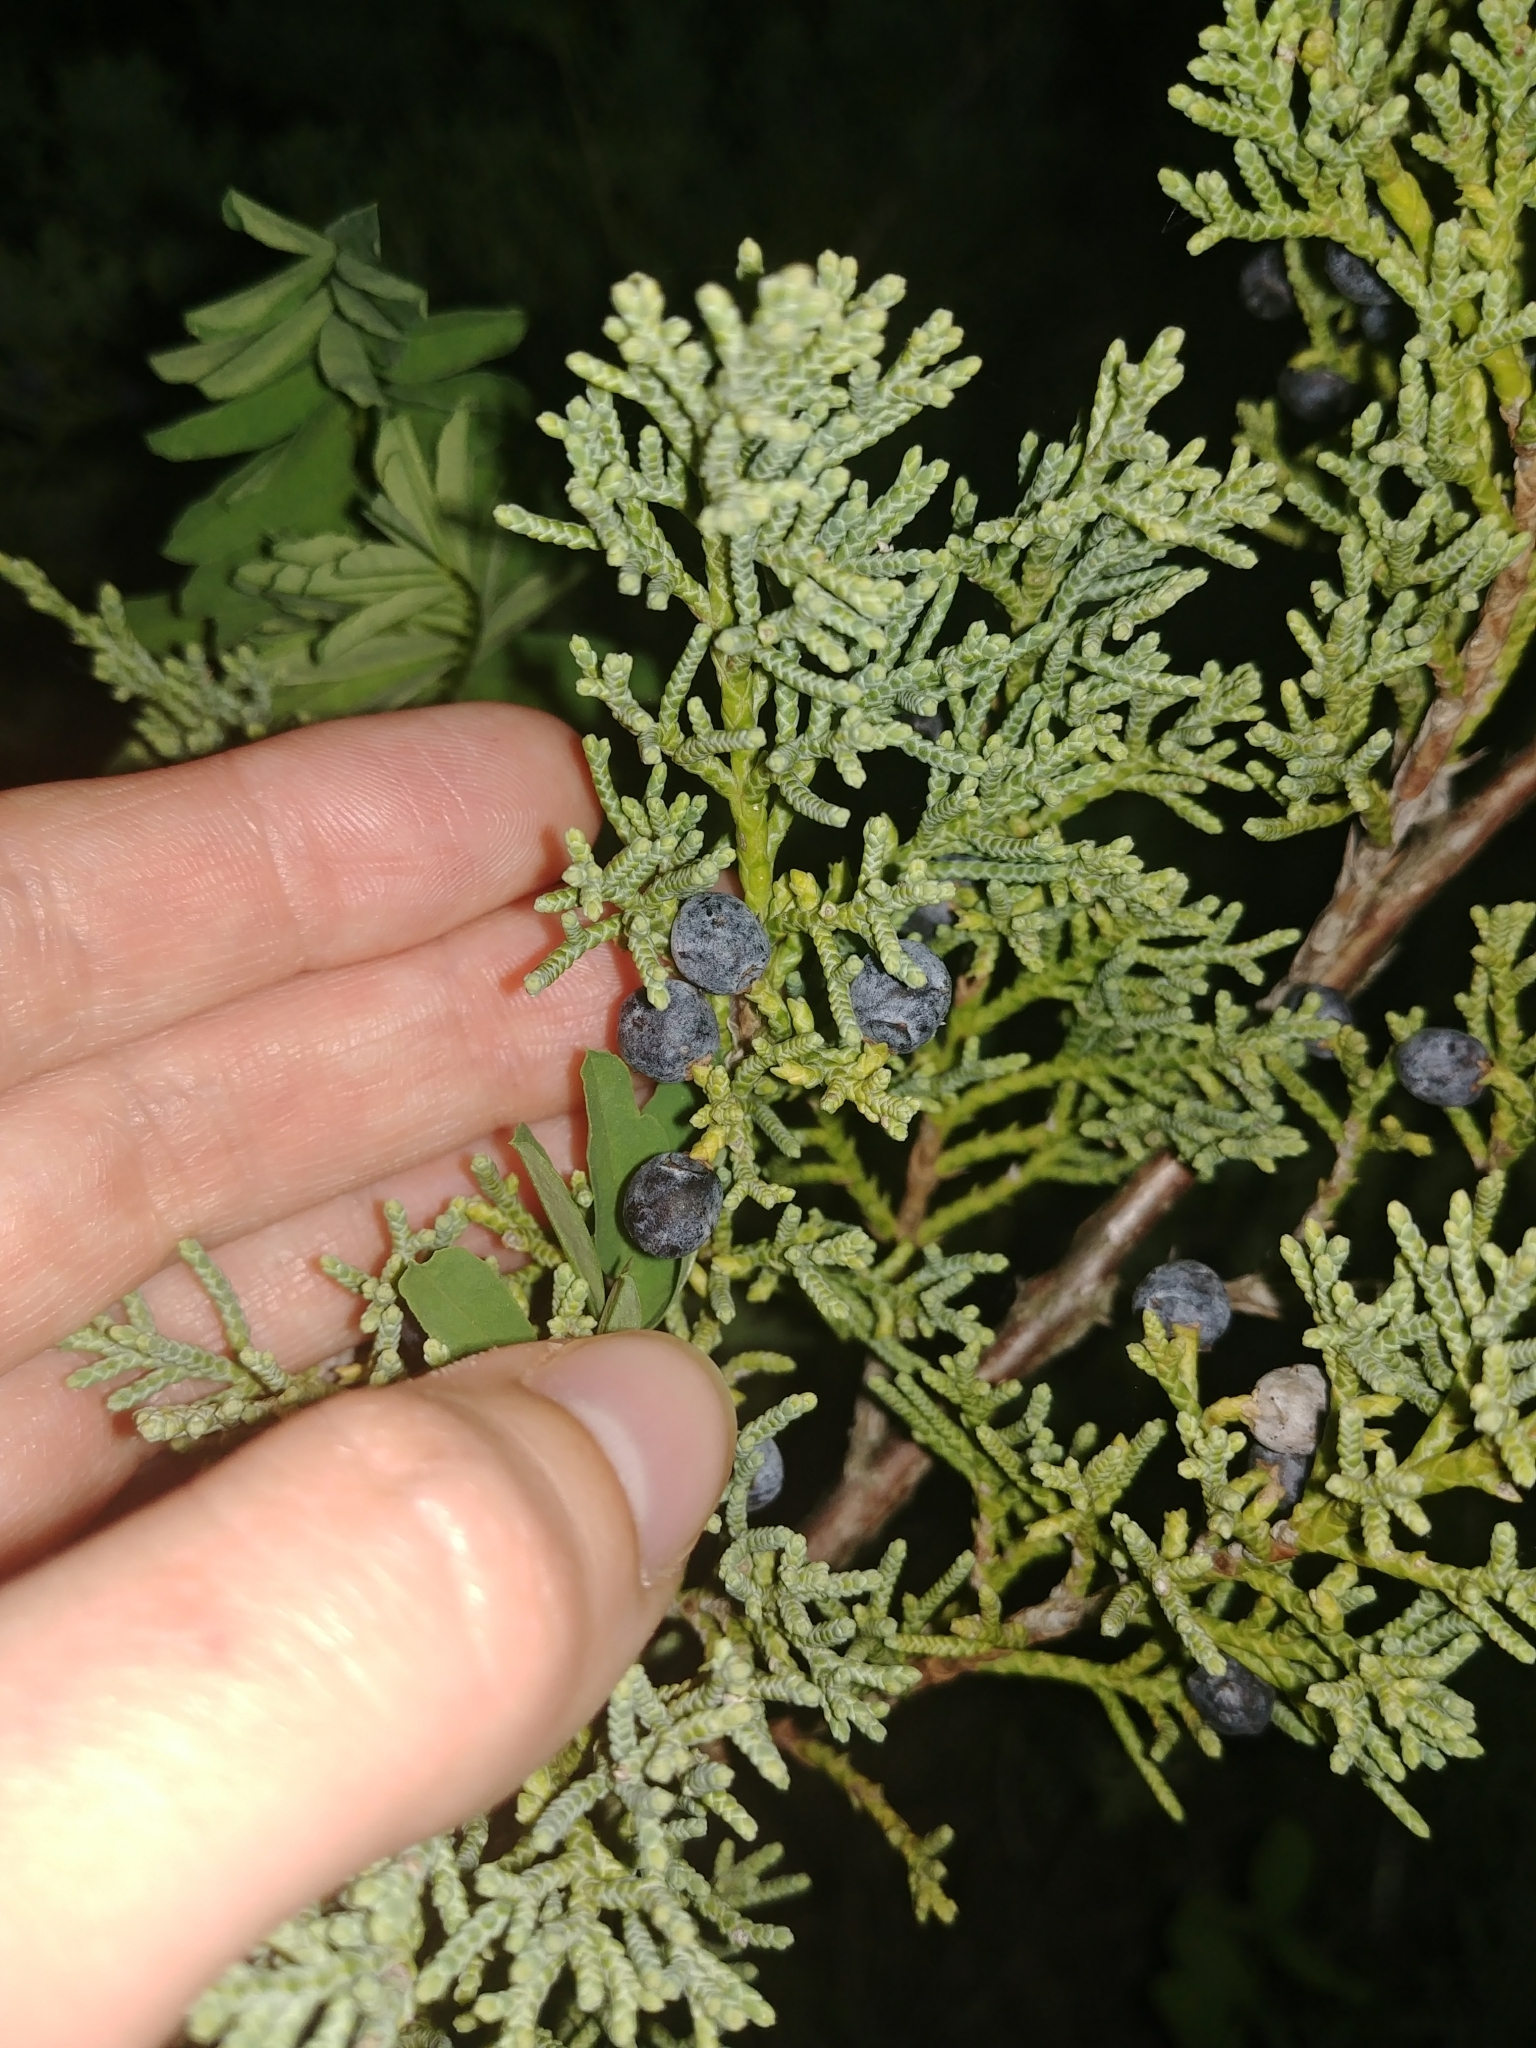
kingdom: Plantae
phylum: Tracheophyta
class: Pinopsida
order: Pinales
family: Cupressaceae
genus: Juniperus
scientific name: Juniperus virginiana
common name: Red juniper
